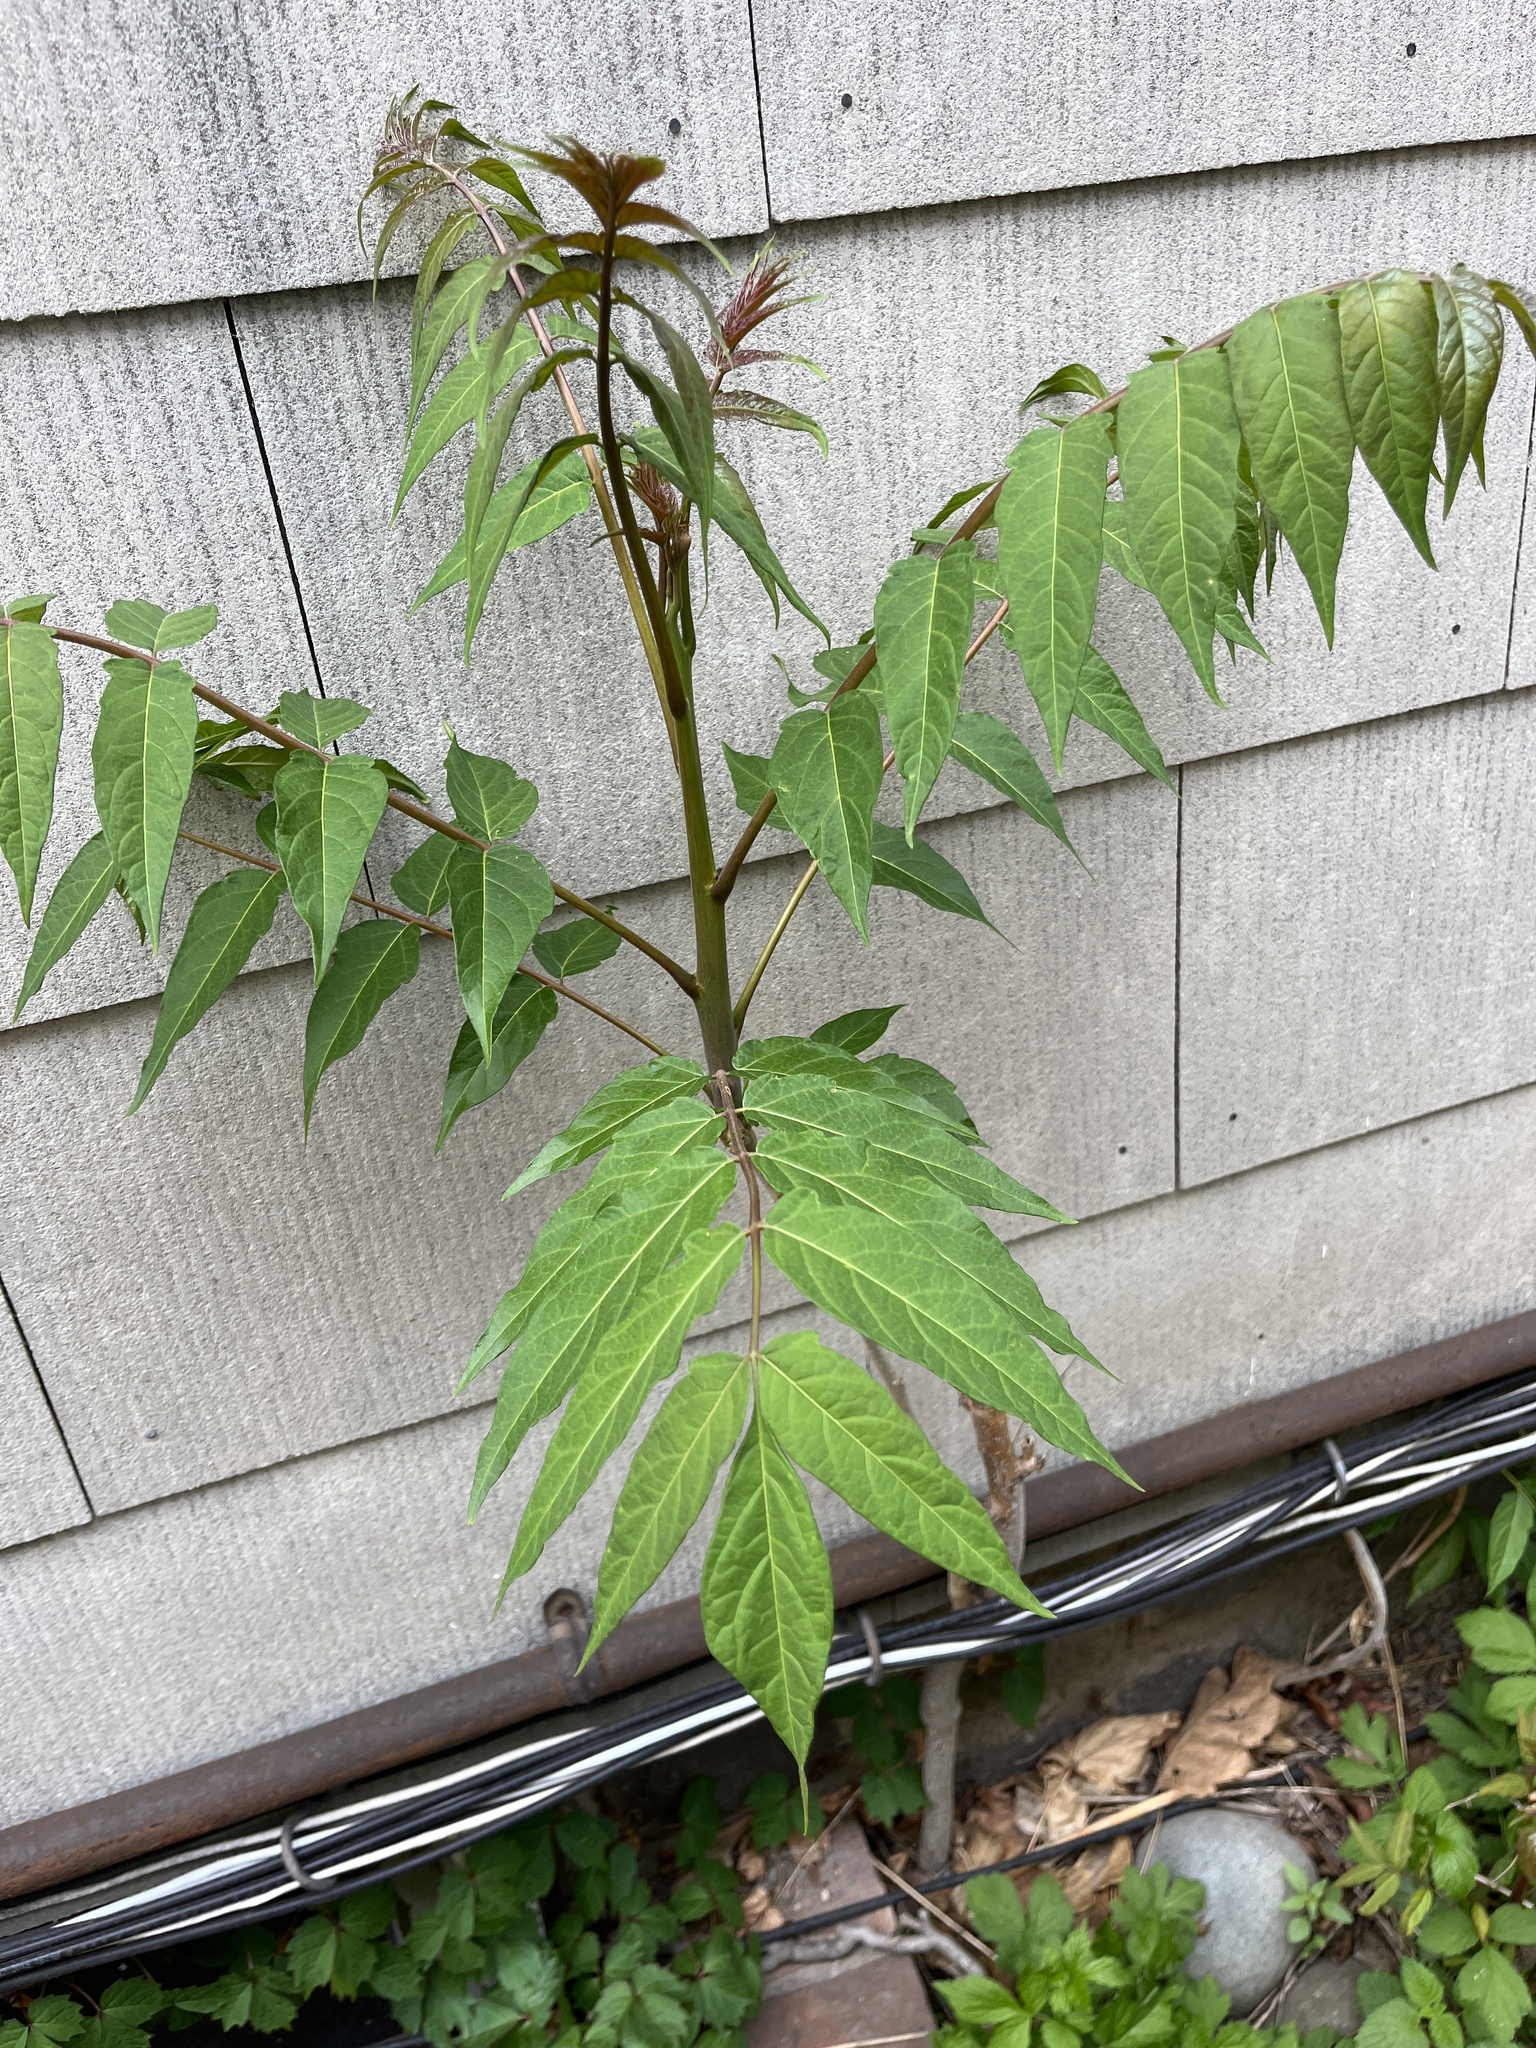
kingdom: Plantae
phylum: Tracheophyta
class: Magnoliopsida
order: Sapindales
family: Simaroubaceae
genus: Ailanthus
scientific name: Ailanthus altissima
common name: Tree-of-heaven
